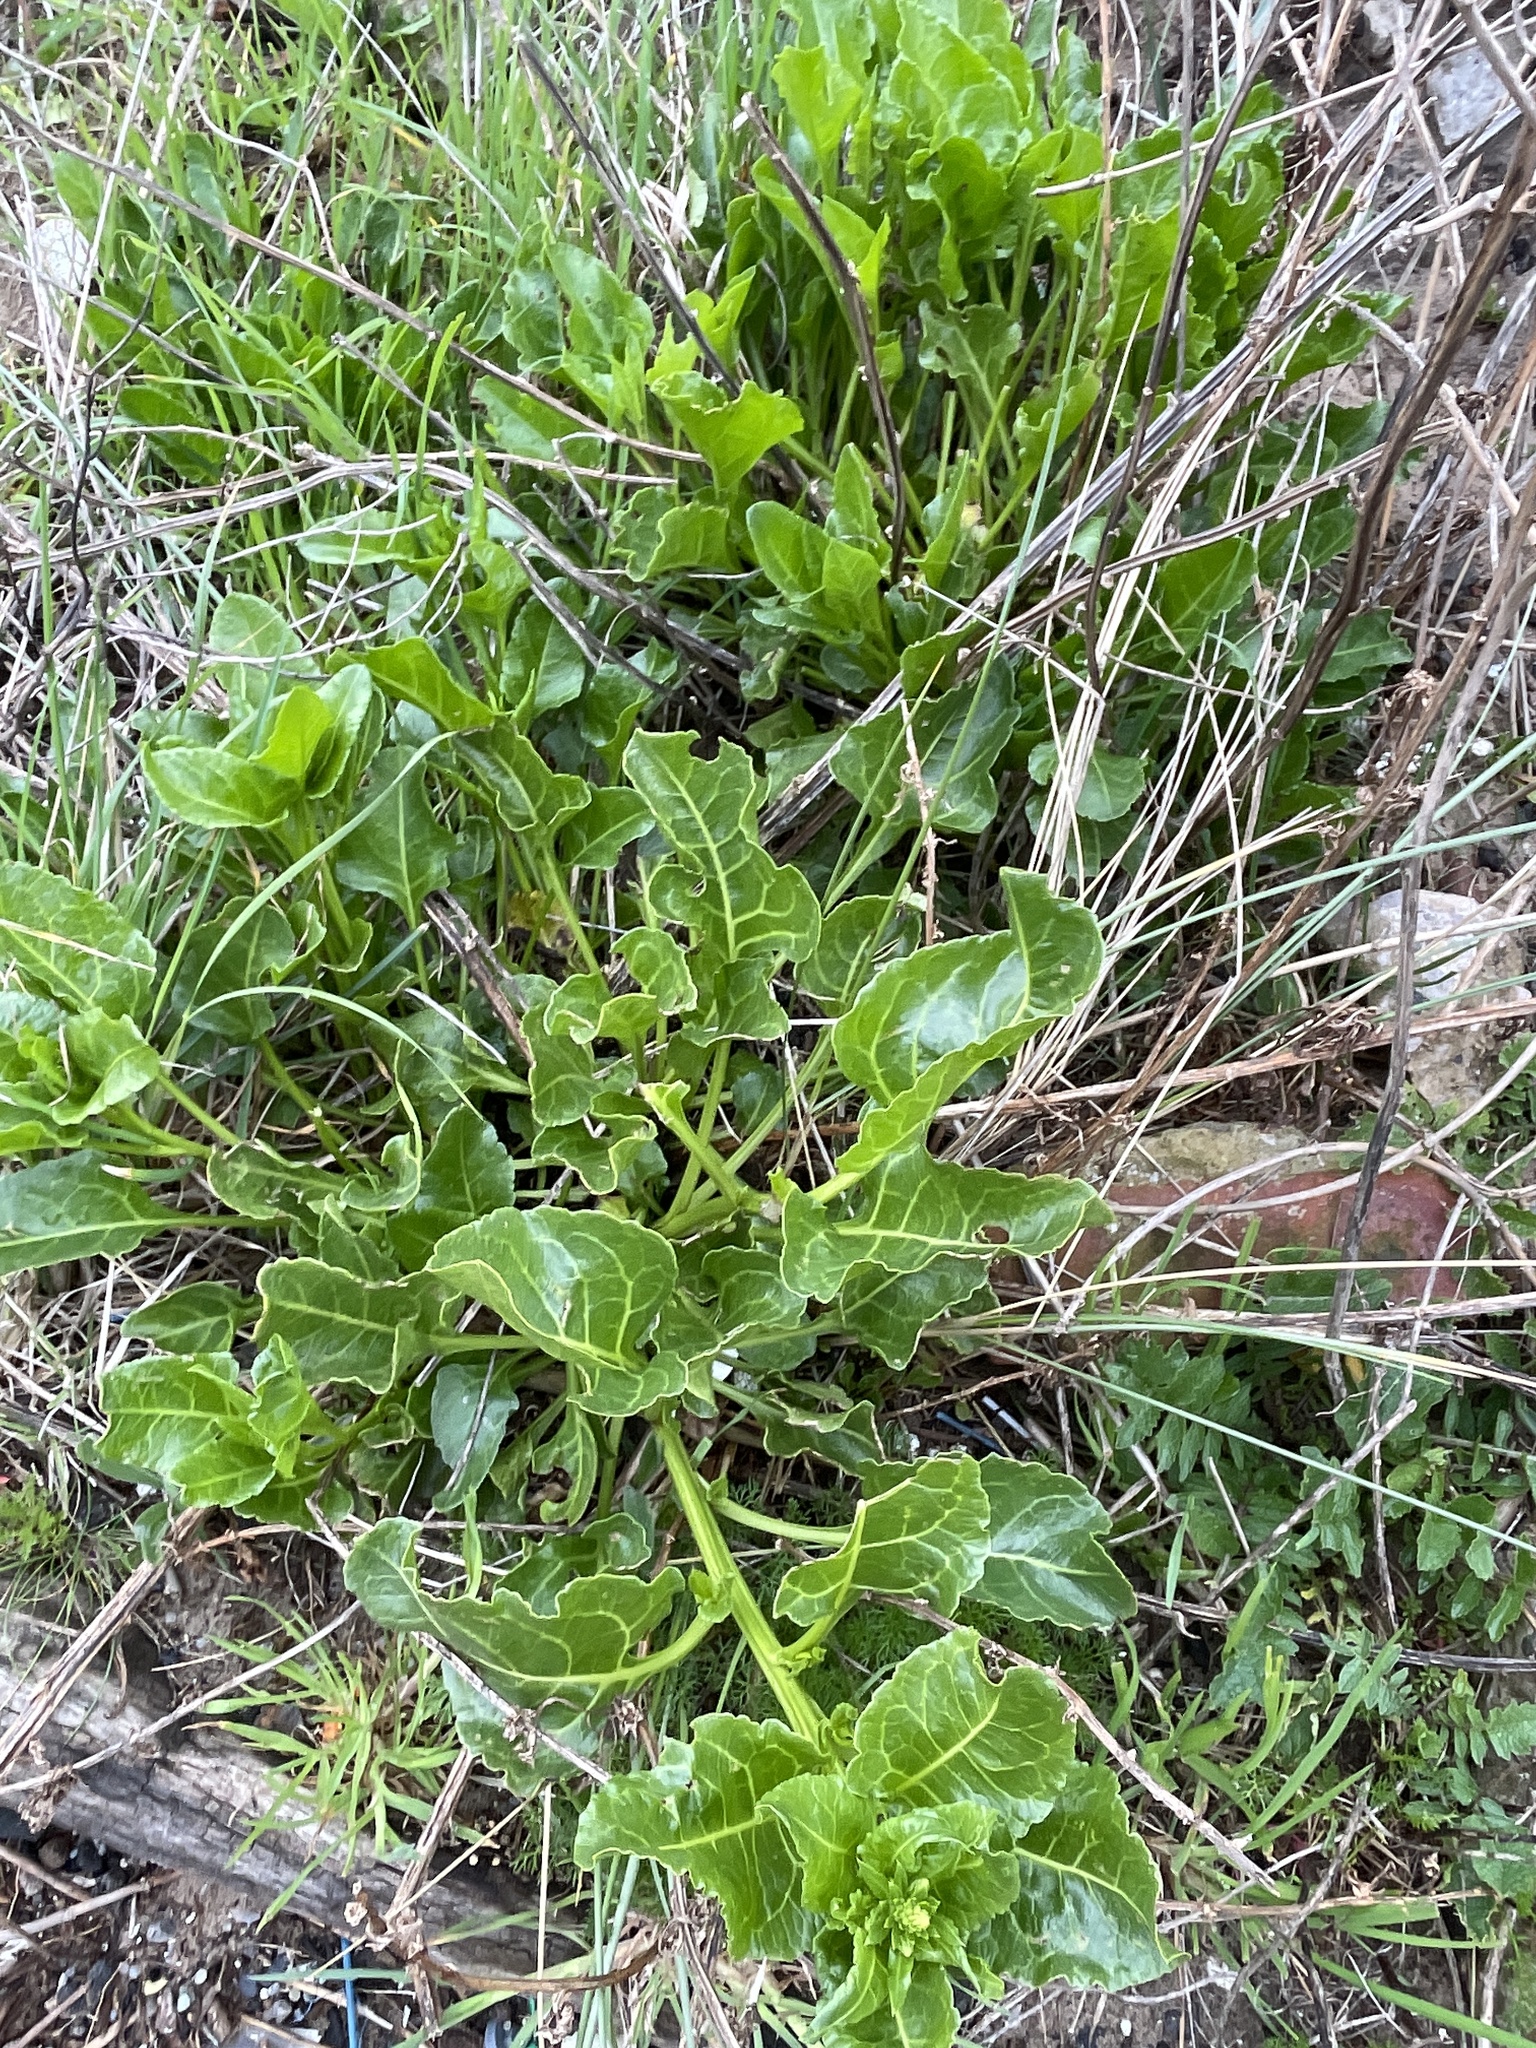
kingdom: Plantae
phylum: Tracheophyta
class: Magnoliopsida
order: Caryophyllales
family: Amaranthaceae
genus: Beta
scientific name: Beta vulgaris
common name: Beet
